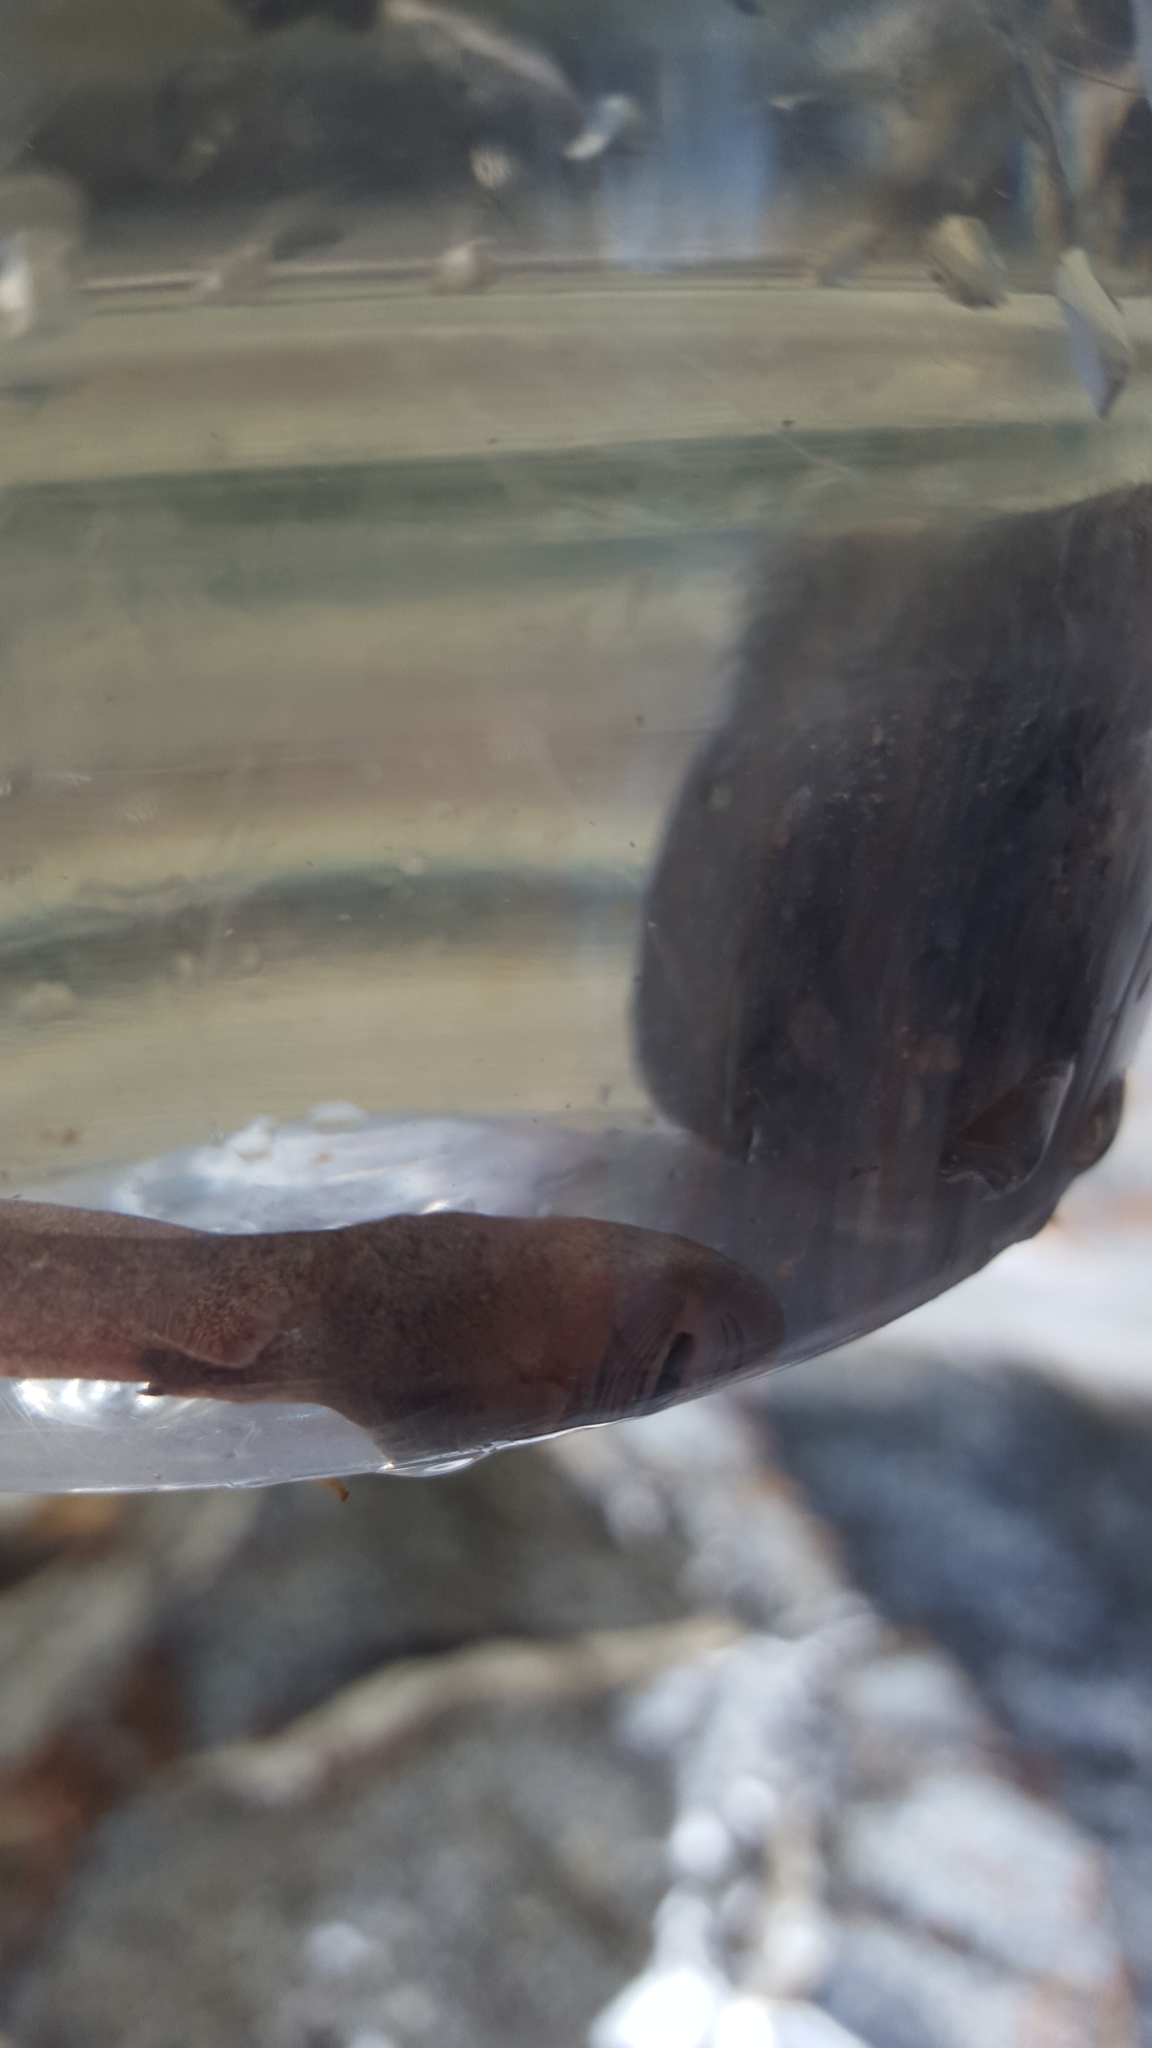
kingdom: Animalia
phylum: Chordata
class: Amphibia
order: Anura
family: Ascaphidae
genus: Ascaphus
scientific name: Ascaphus truei
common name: Tailed frog
